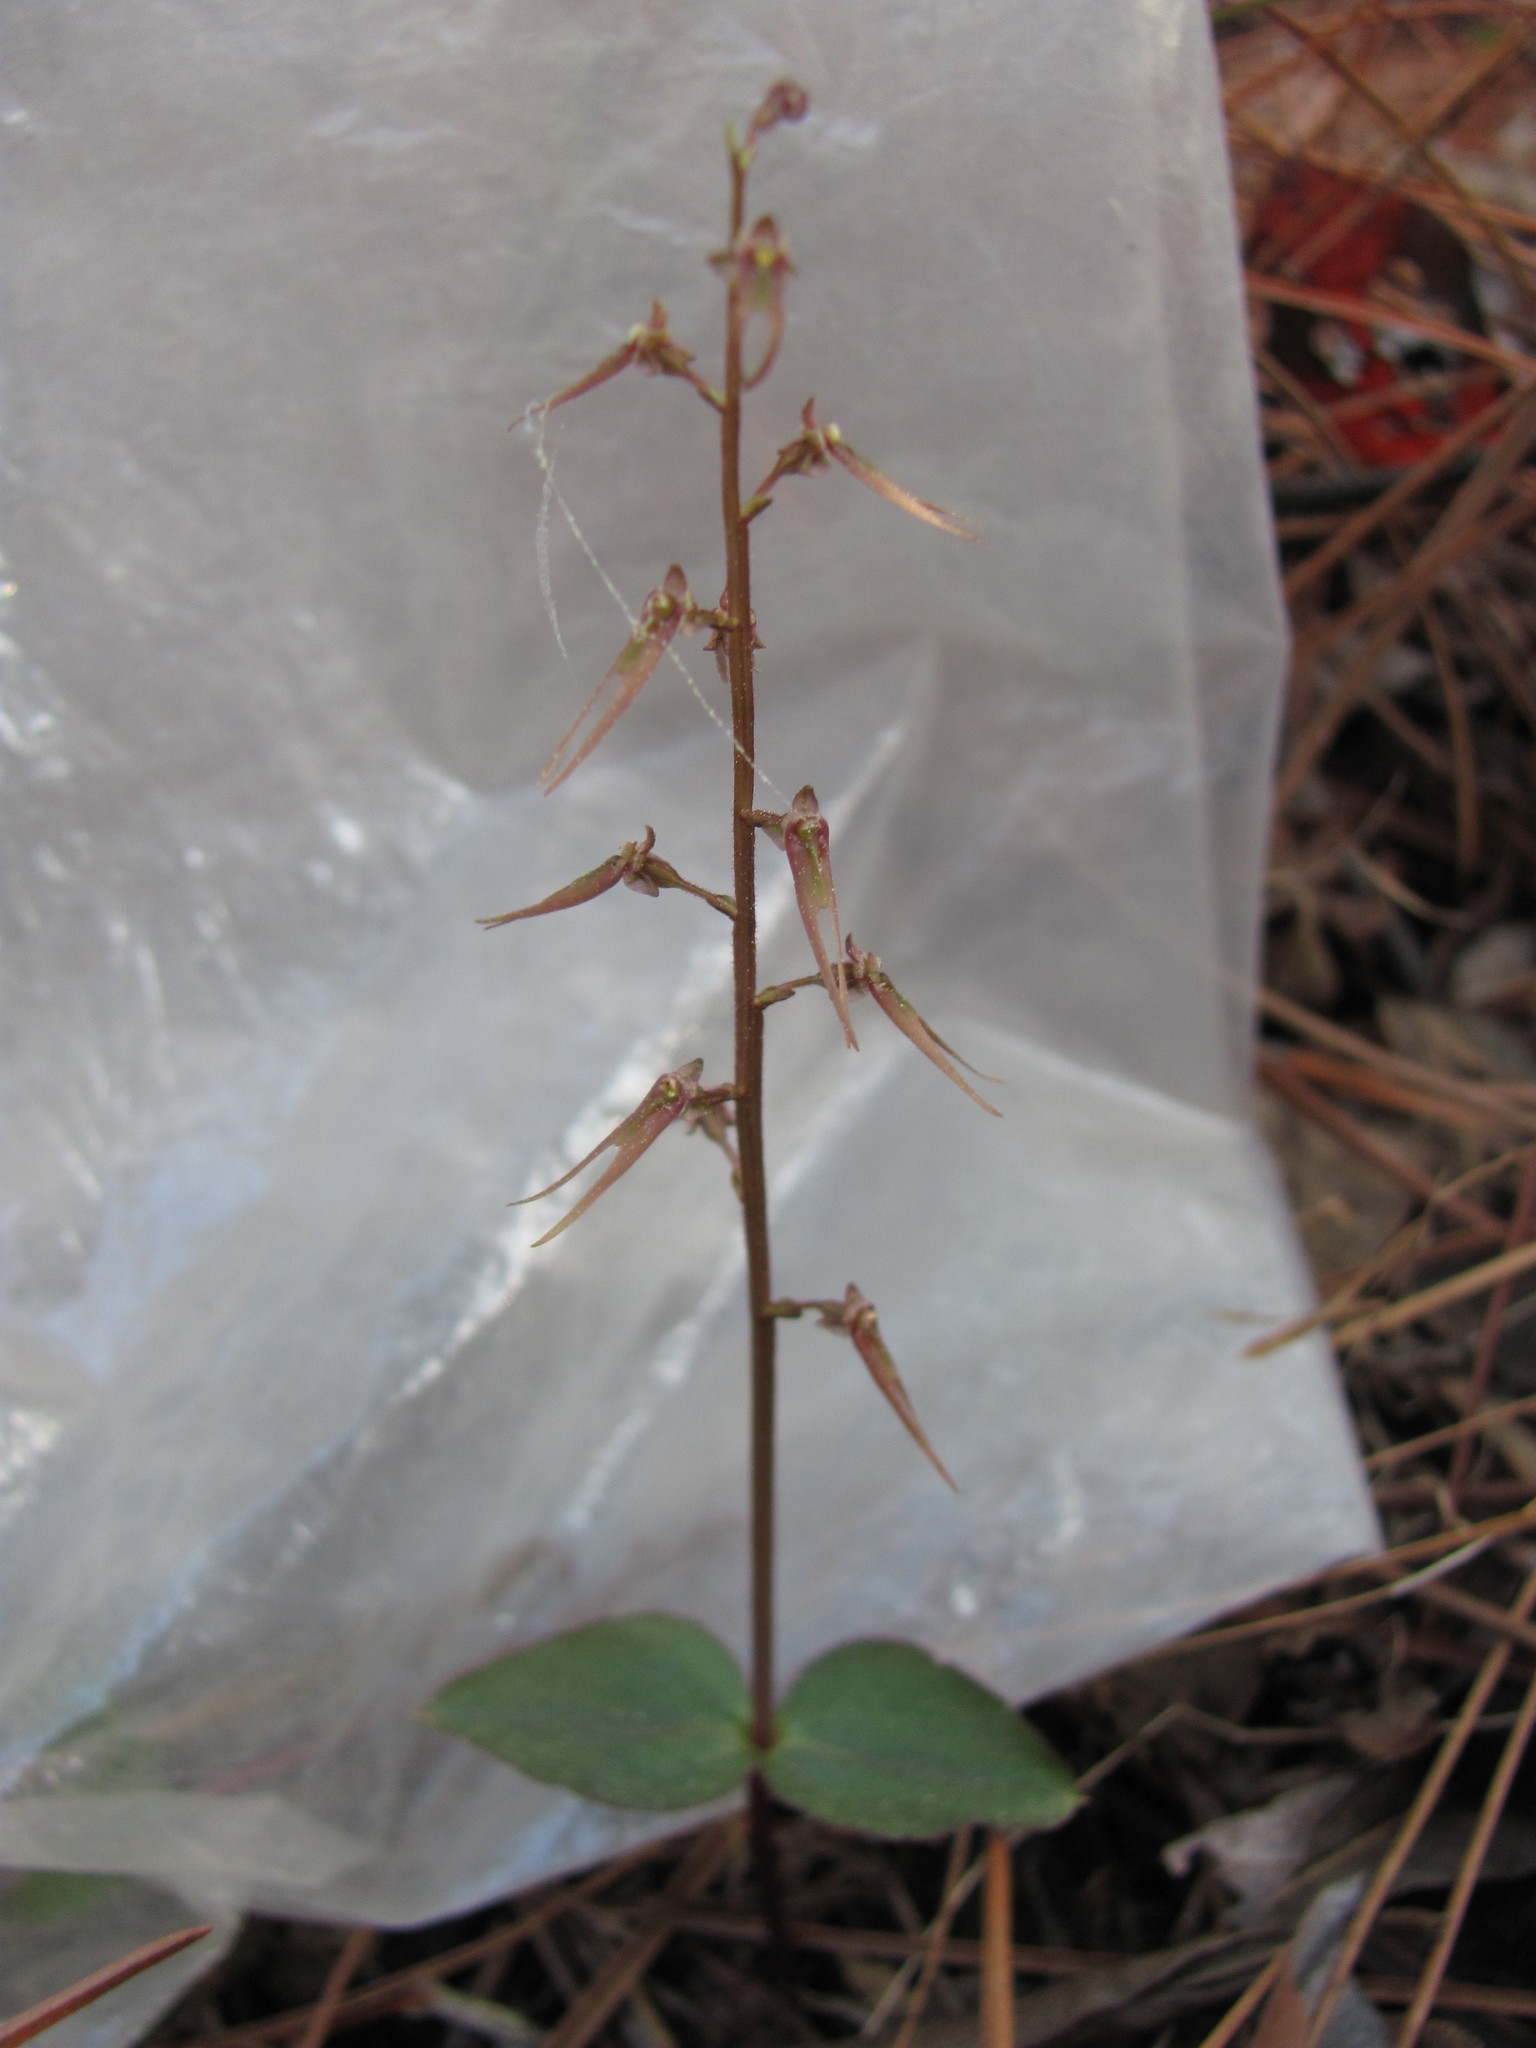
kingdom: Plantae
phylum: Tracheophyta
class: Liliopsida
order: Asparagales
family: Orchidaceae
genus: Neottia
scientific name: Neottia bifolia
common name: Southern twayblade
